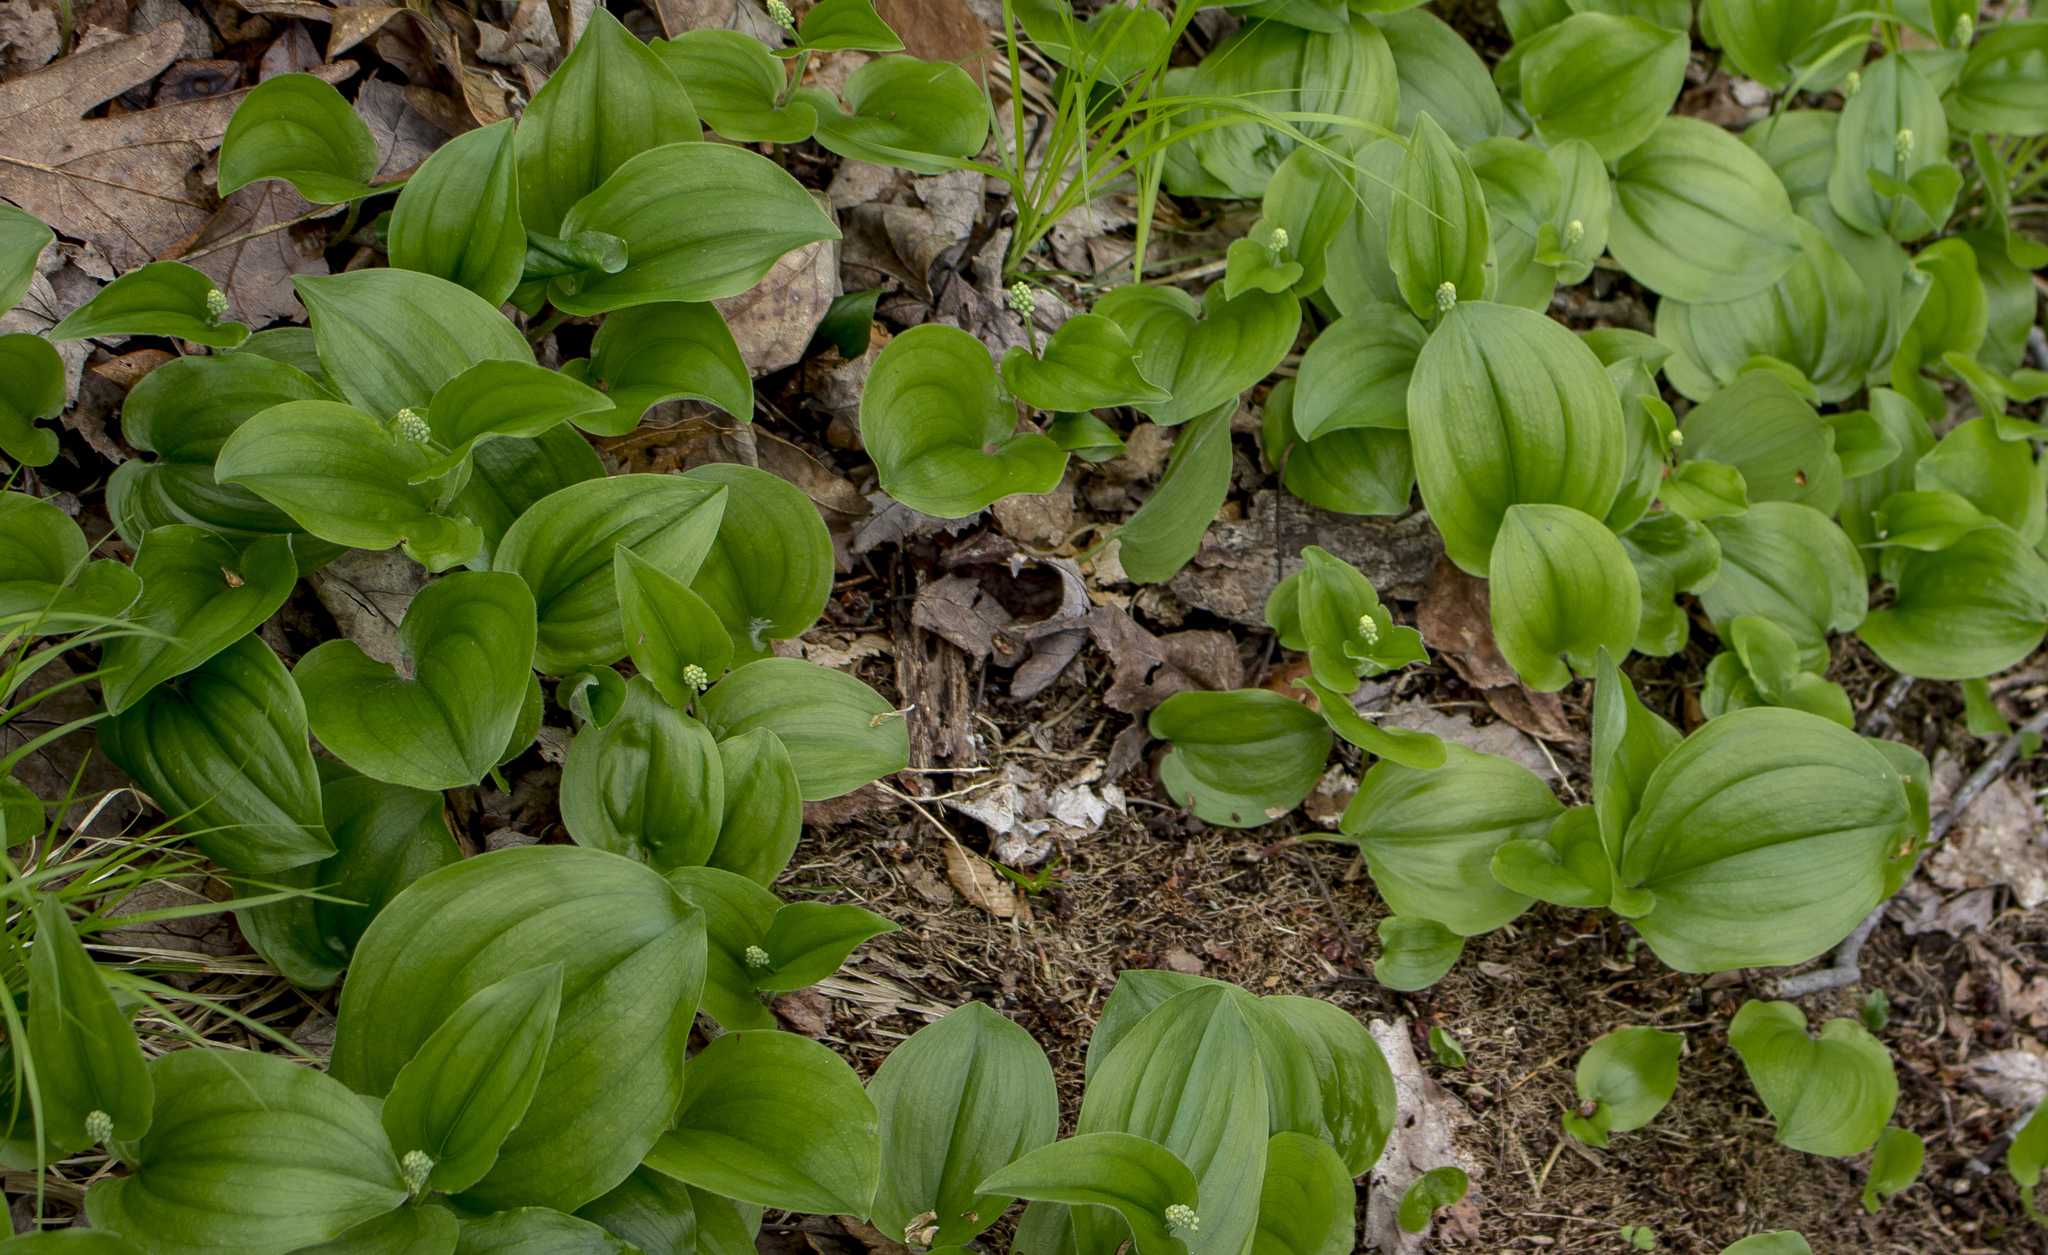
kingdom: Plantae
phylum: Tracheophyta
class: Liliopsida
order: Asparagales
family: Asparagaceae
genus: Maianthemum
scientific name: Maianthemum canadense
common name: False lily-of-the-valley
